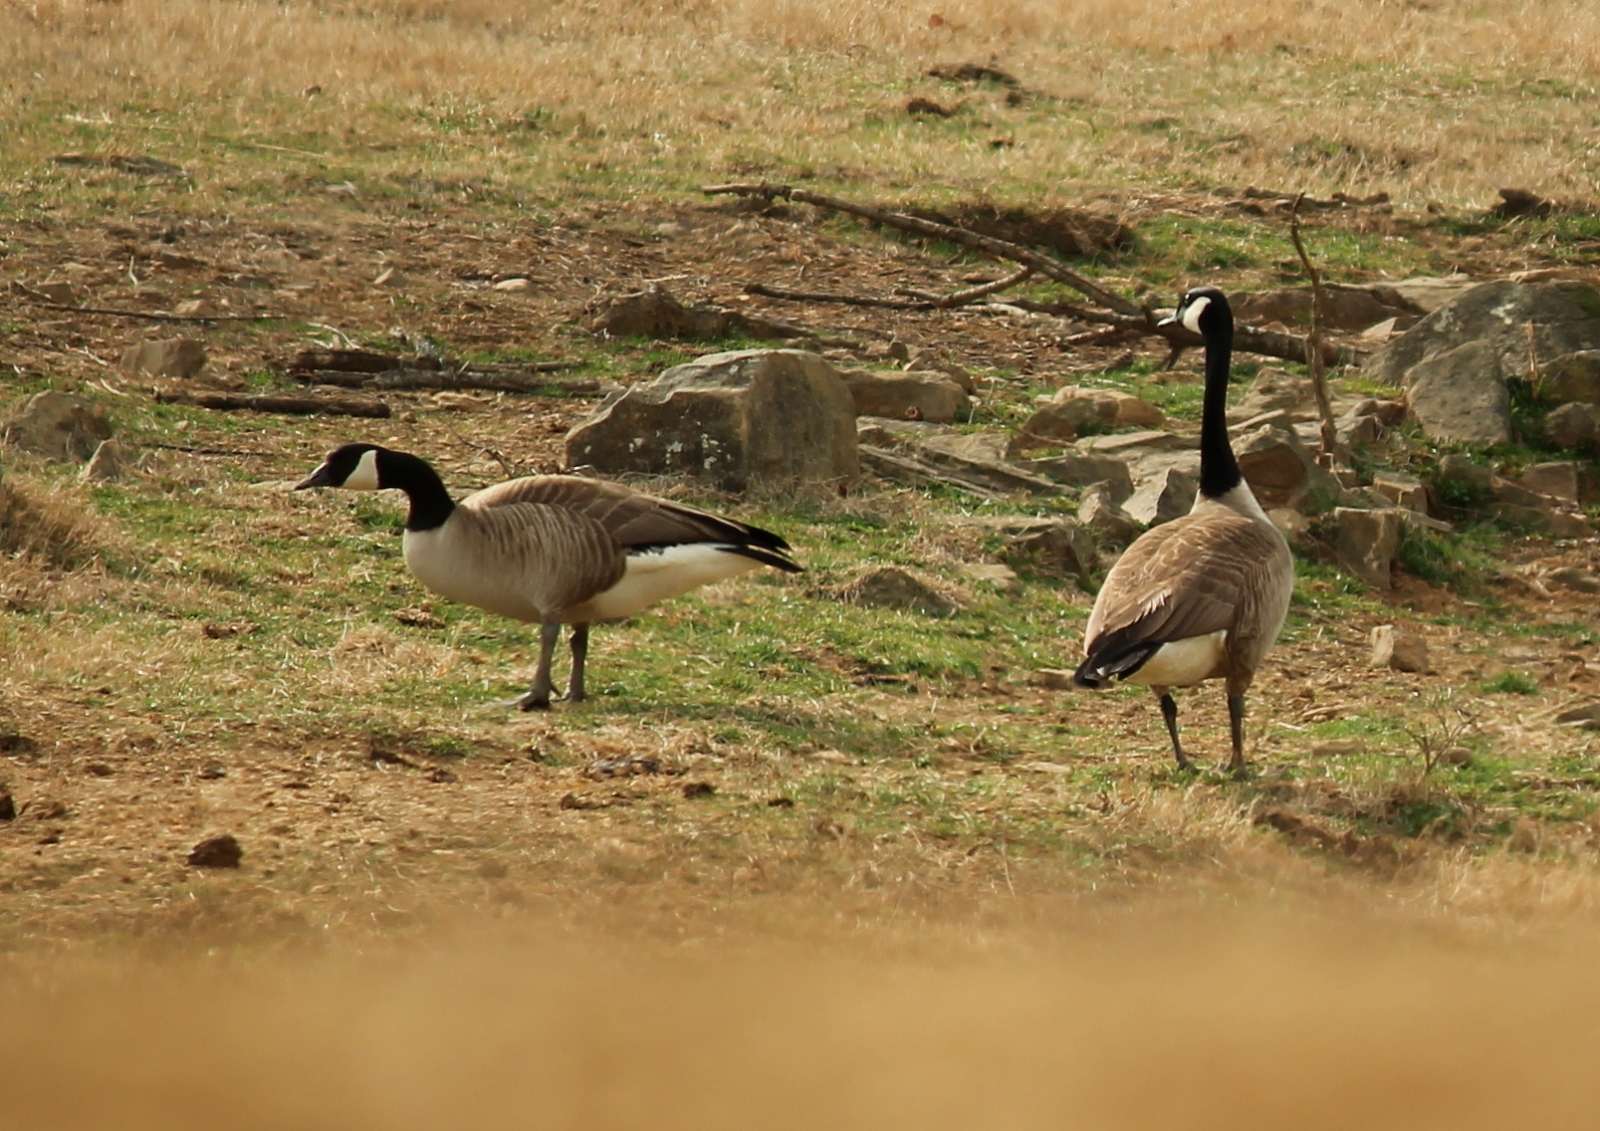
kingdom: Animalia
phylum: Chordata
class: Aves
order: Anseriformes
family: Anatidae
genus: Branta
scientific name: Branta canadensis
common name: Canada goose
